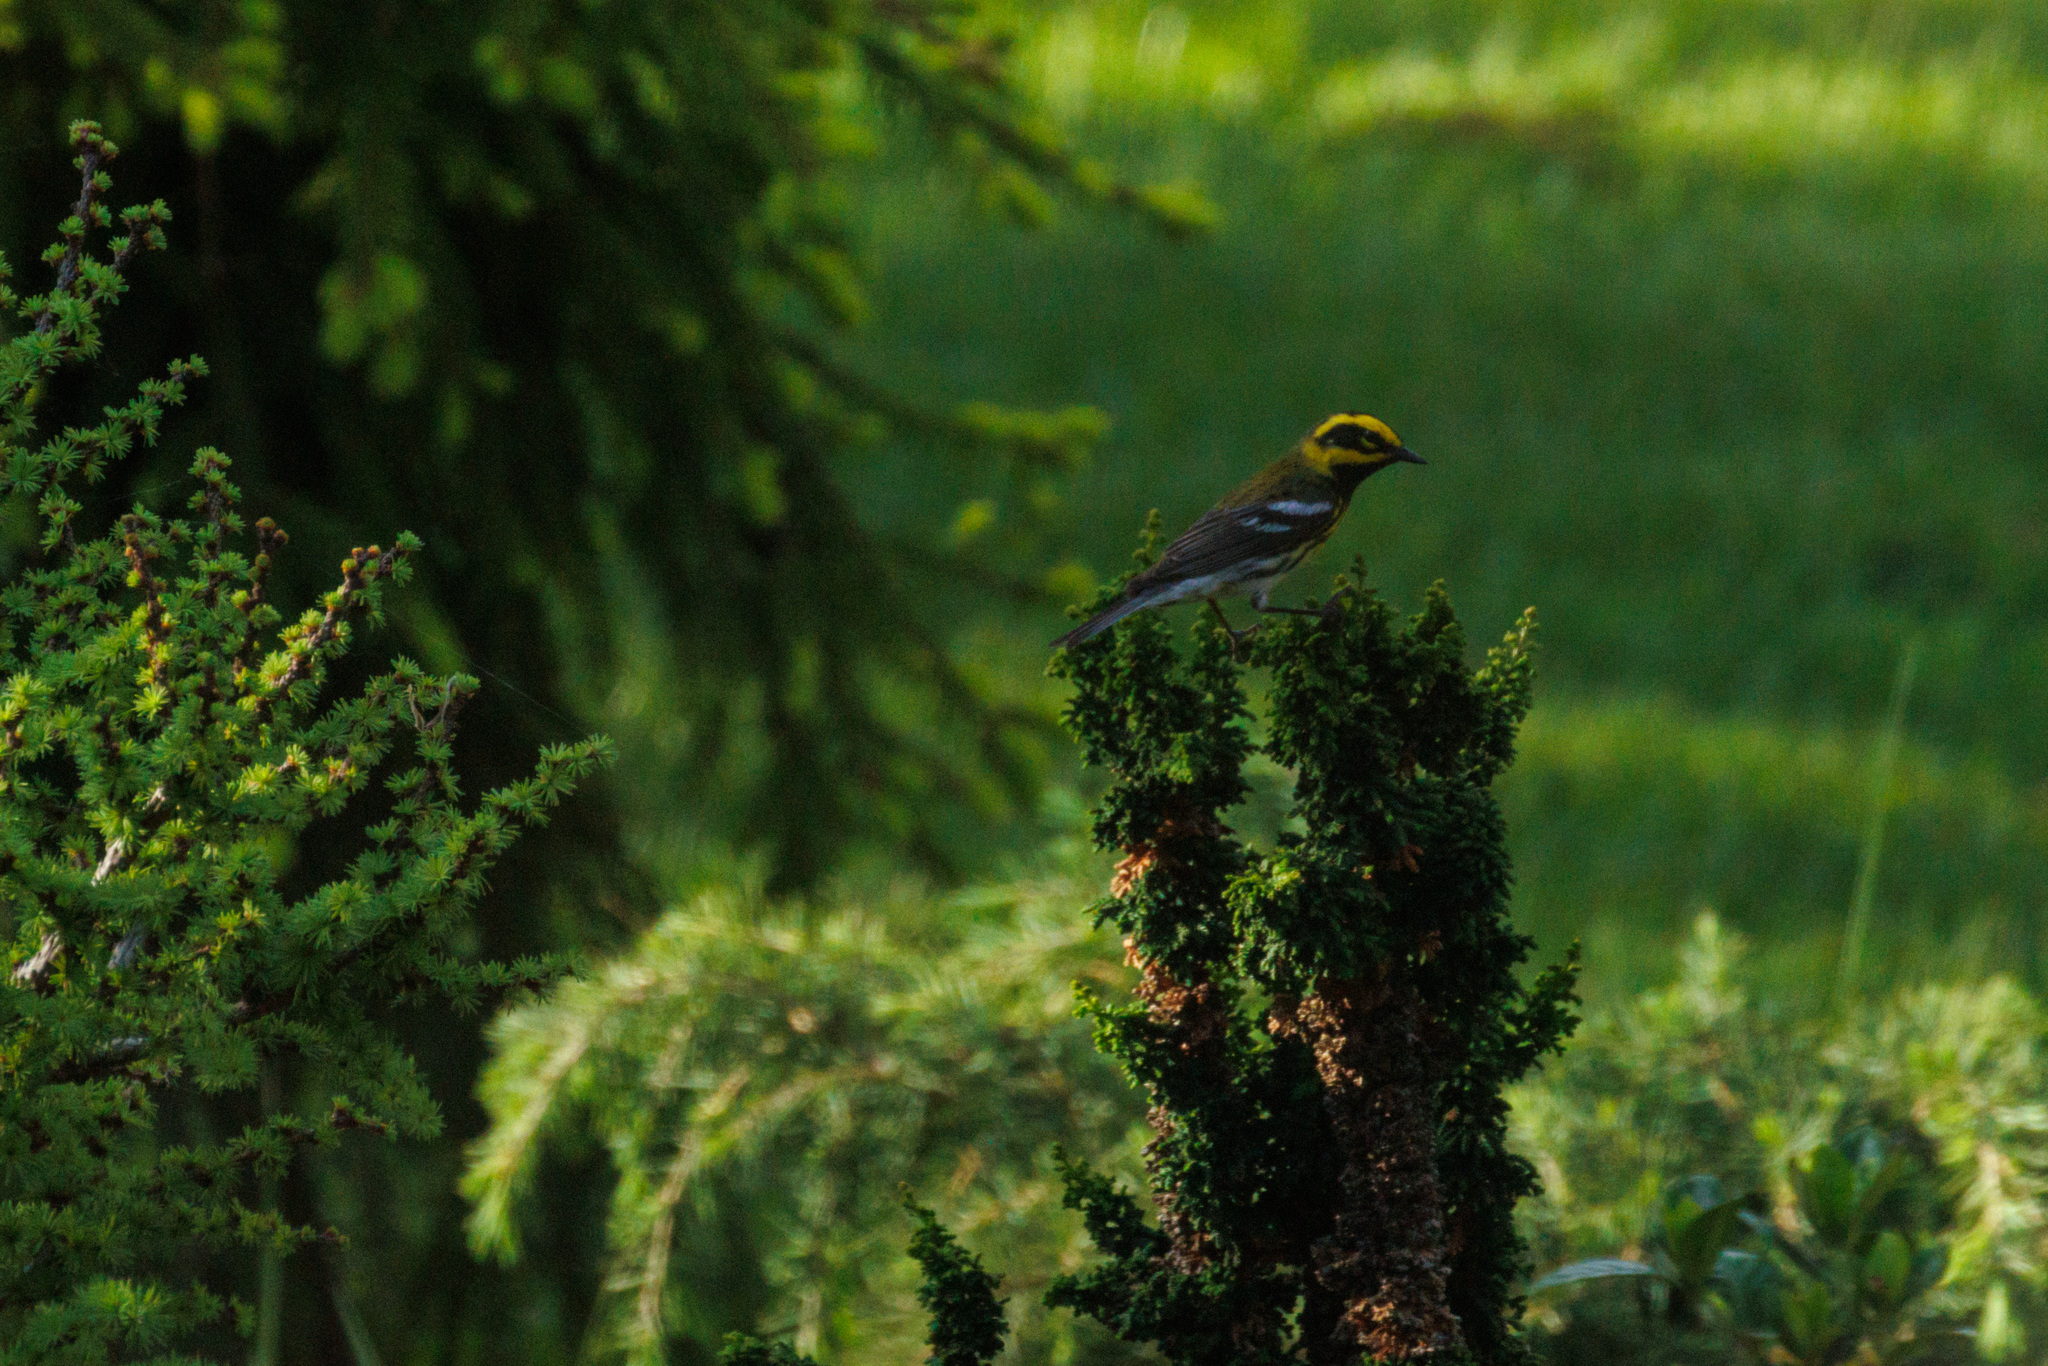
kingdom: Animalia
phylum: Chordata
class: Aves
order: Passeriformes
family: Parulidae
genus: Setophaga
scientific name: Setophaga townsendi
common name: Townsend's warbler
